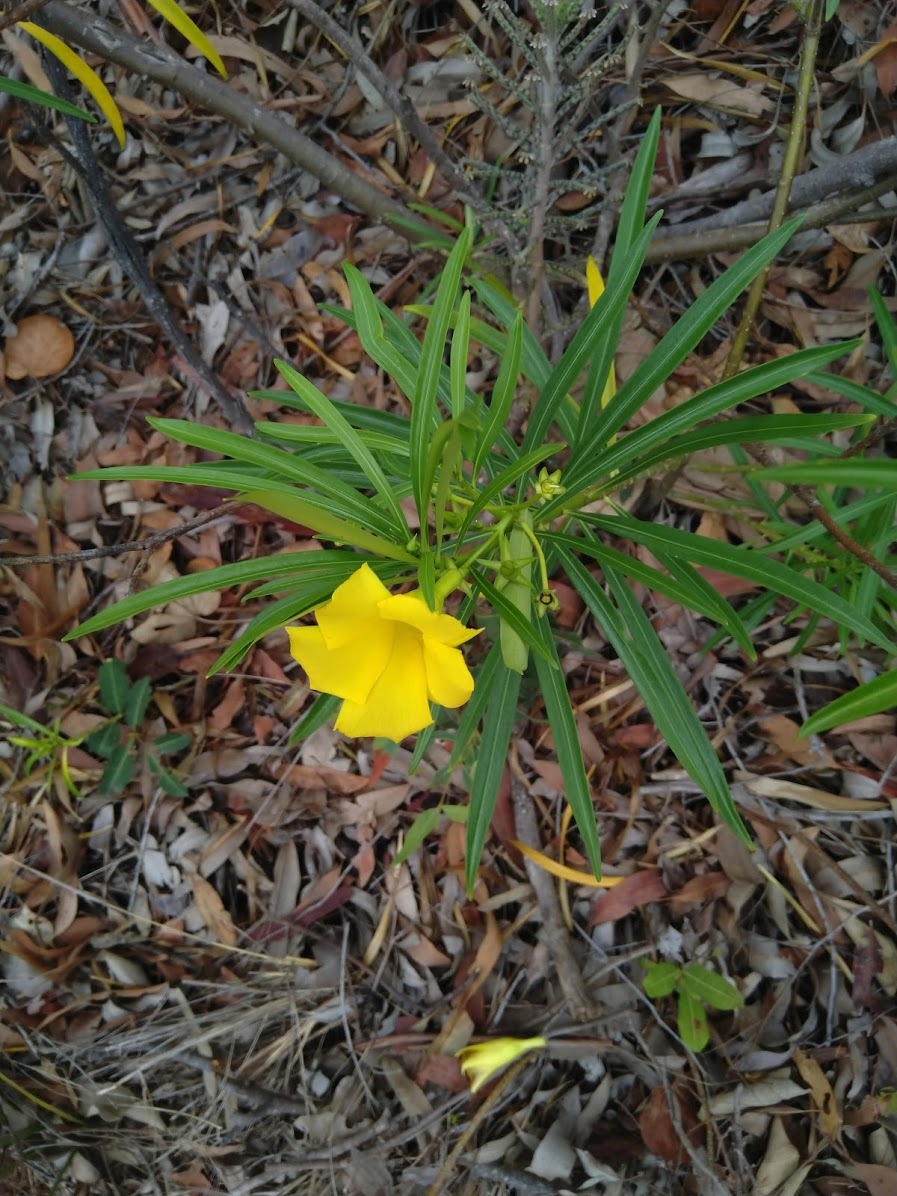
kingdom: Plantae
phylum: Tracheophyta
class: Magnoliopsida
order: Gentianales
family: Apocynaceae
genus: Cascabela
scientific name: Cascabela thevetia
